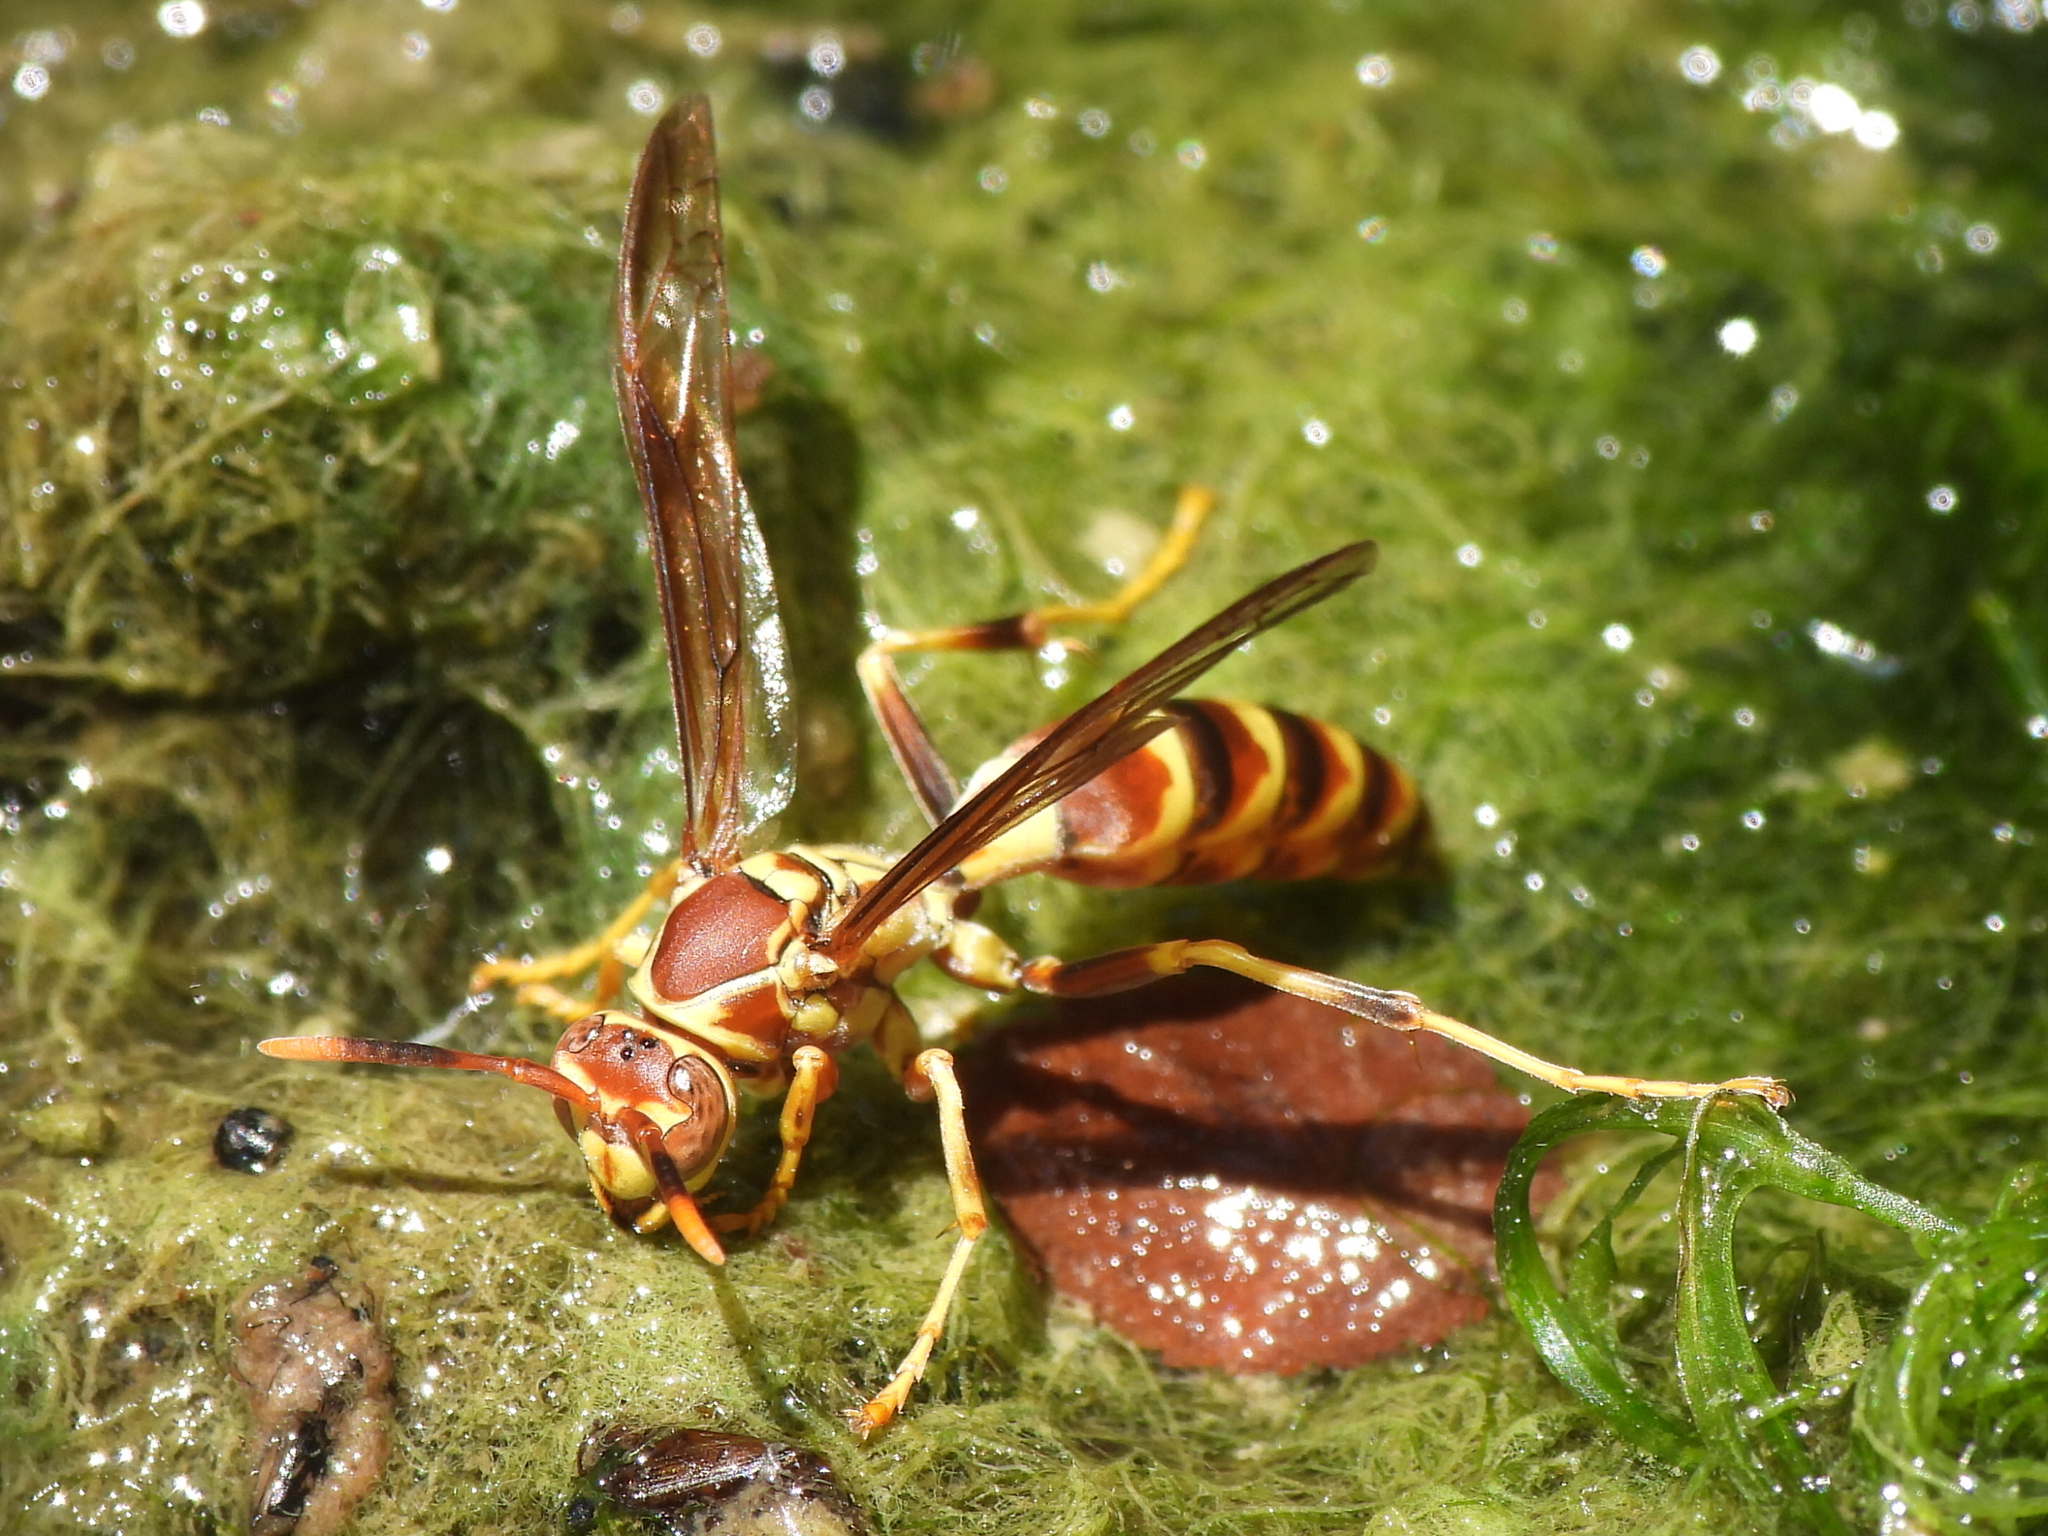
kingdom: Animalia
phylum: Arthropoda
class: Insecta
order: Hymenoptera
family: Eumenidae
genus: Polistes
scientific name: Polistes exclamans
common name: Paper wasp
